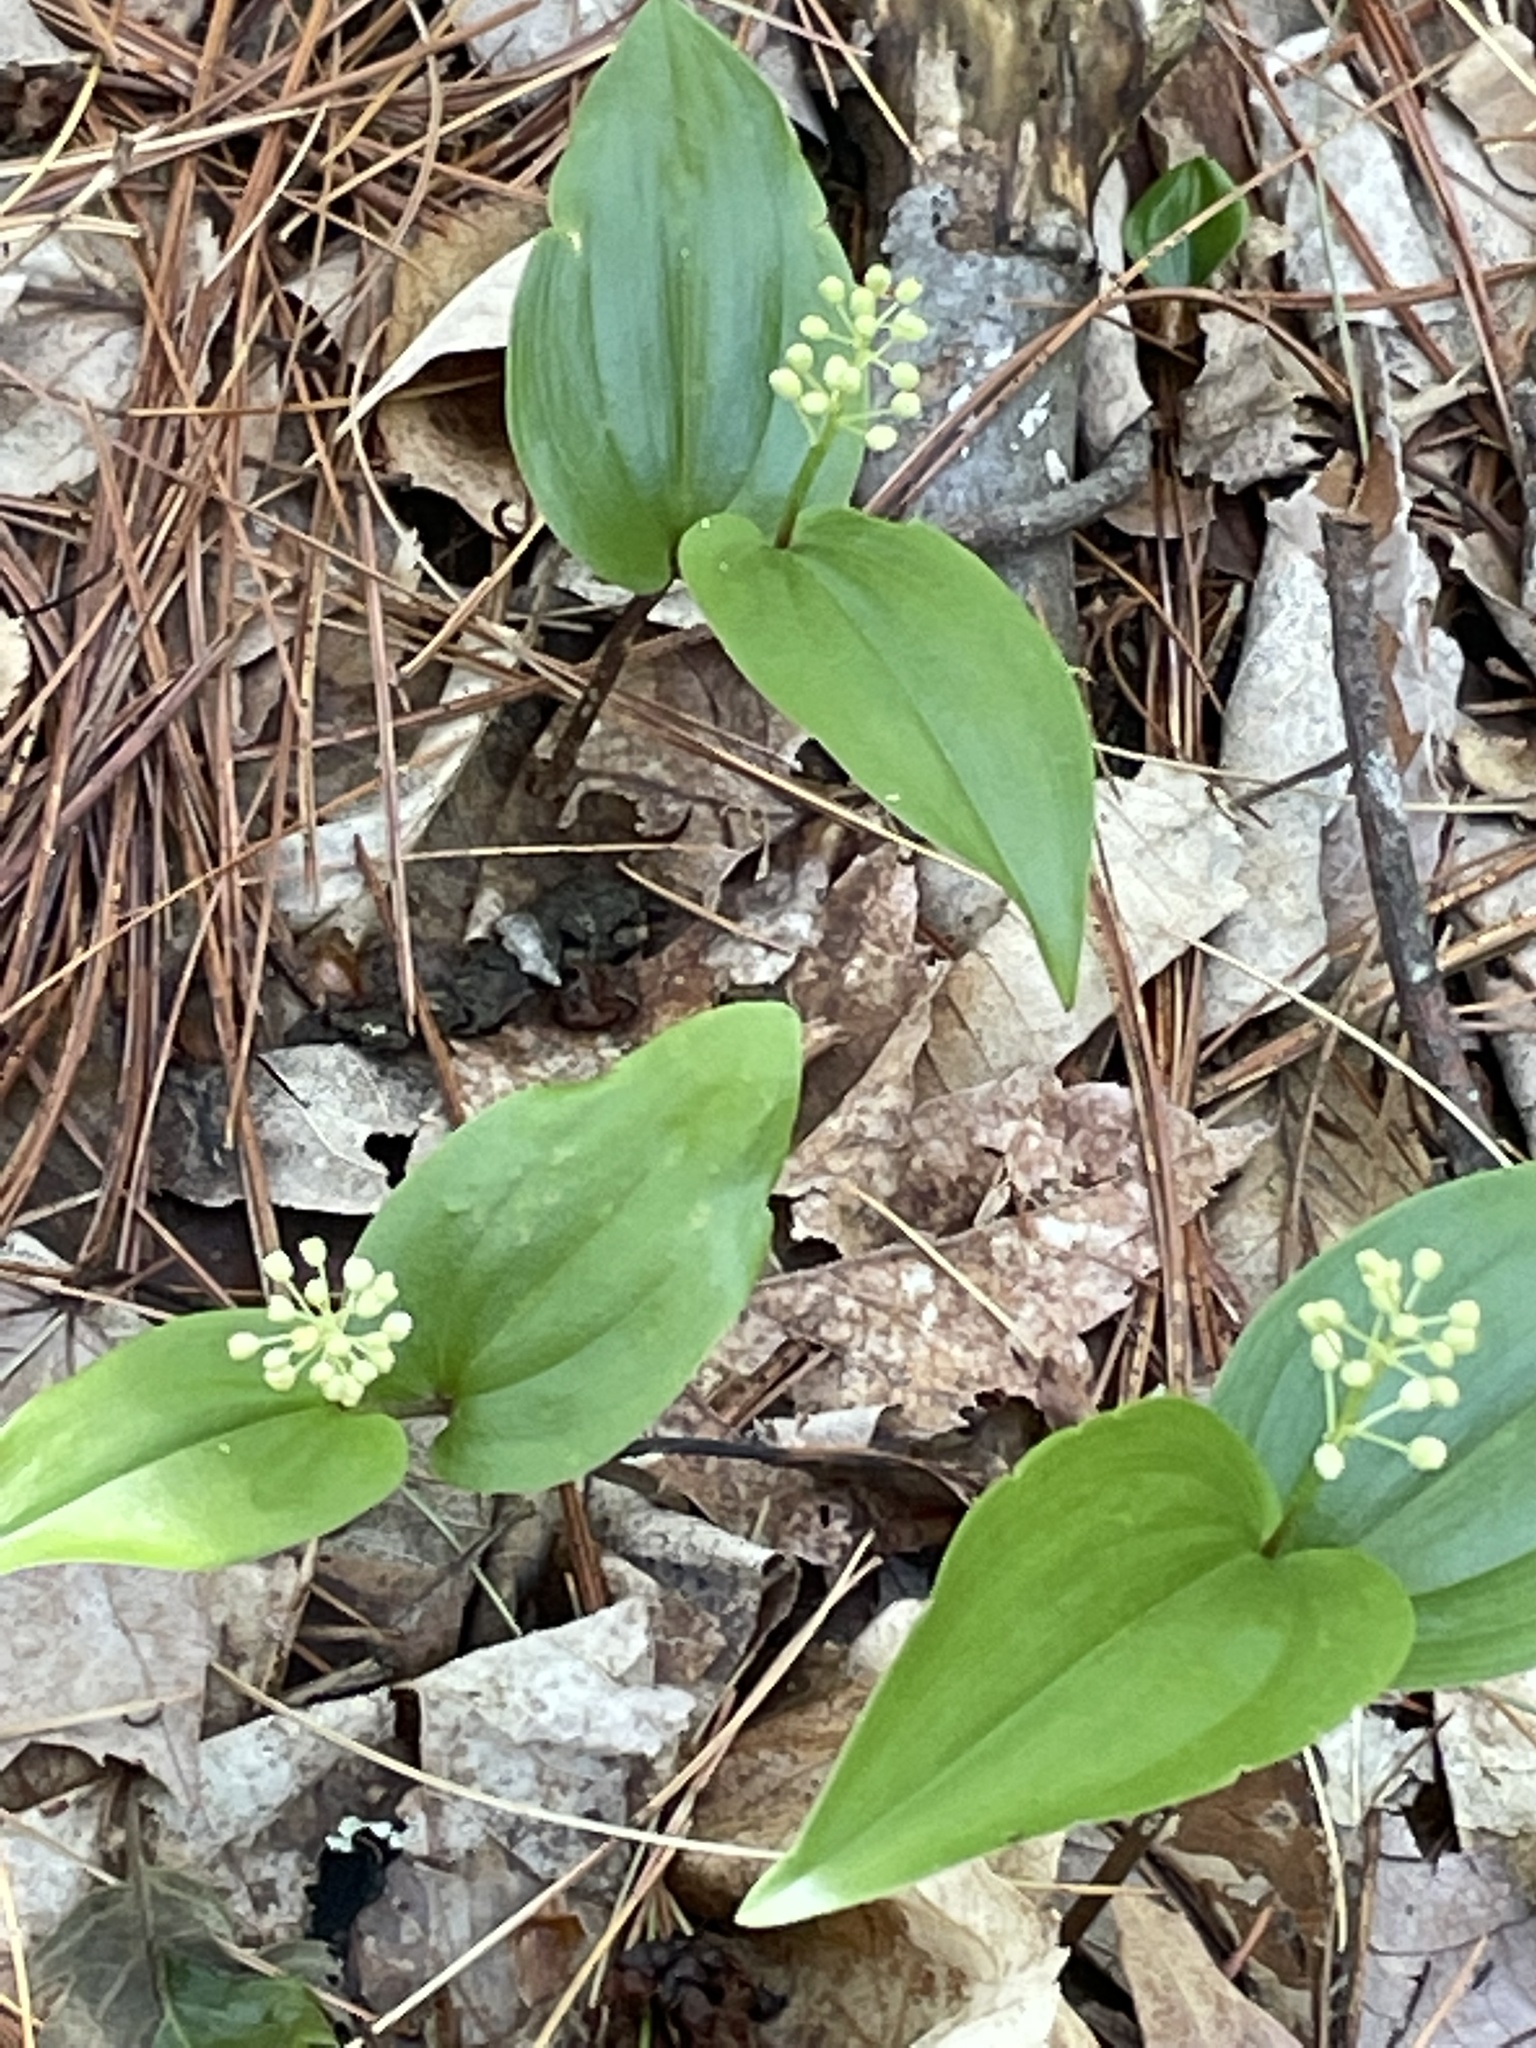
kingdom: Plantae
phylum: Tracheophyta
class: Liliopsida
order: Asparagales
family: Asparagaceae
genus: Maianthemum
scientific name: Maianthemum canadense
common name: False lily-of-the-valley
